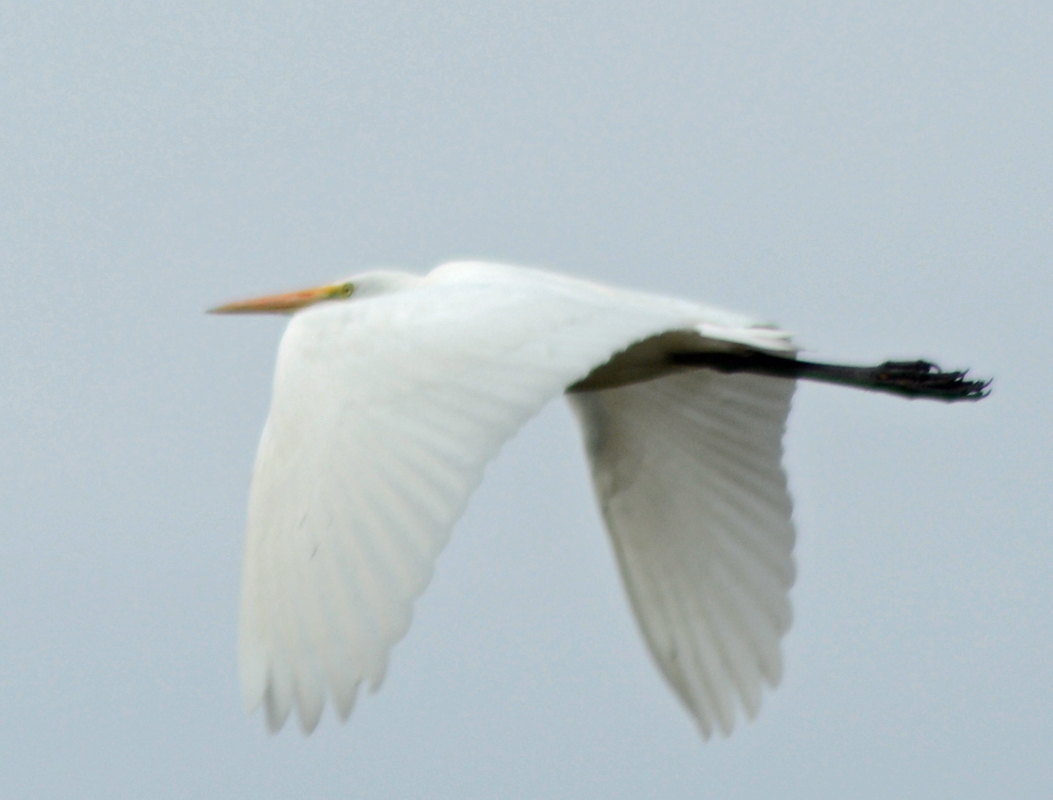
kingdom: Animalia
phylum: Chordata
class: Aves
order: Pelecaniformes
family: Ardeidae
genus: Ardea
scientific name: Ardea alba
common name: Great egret
